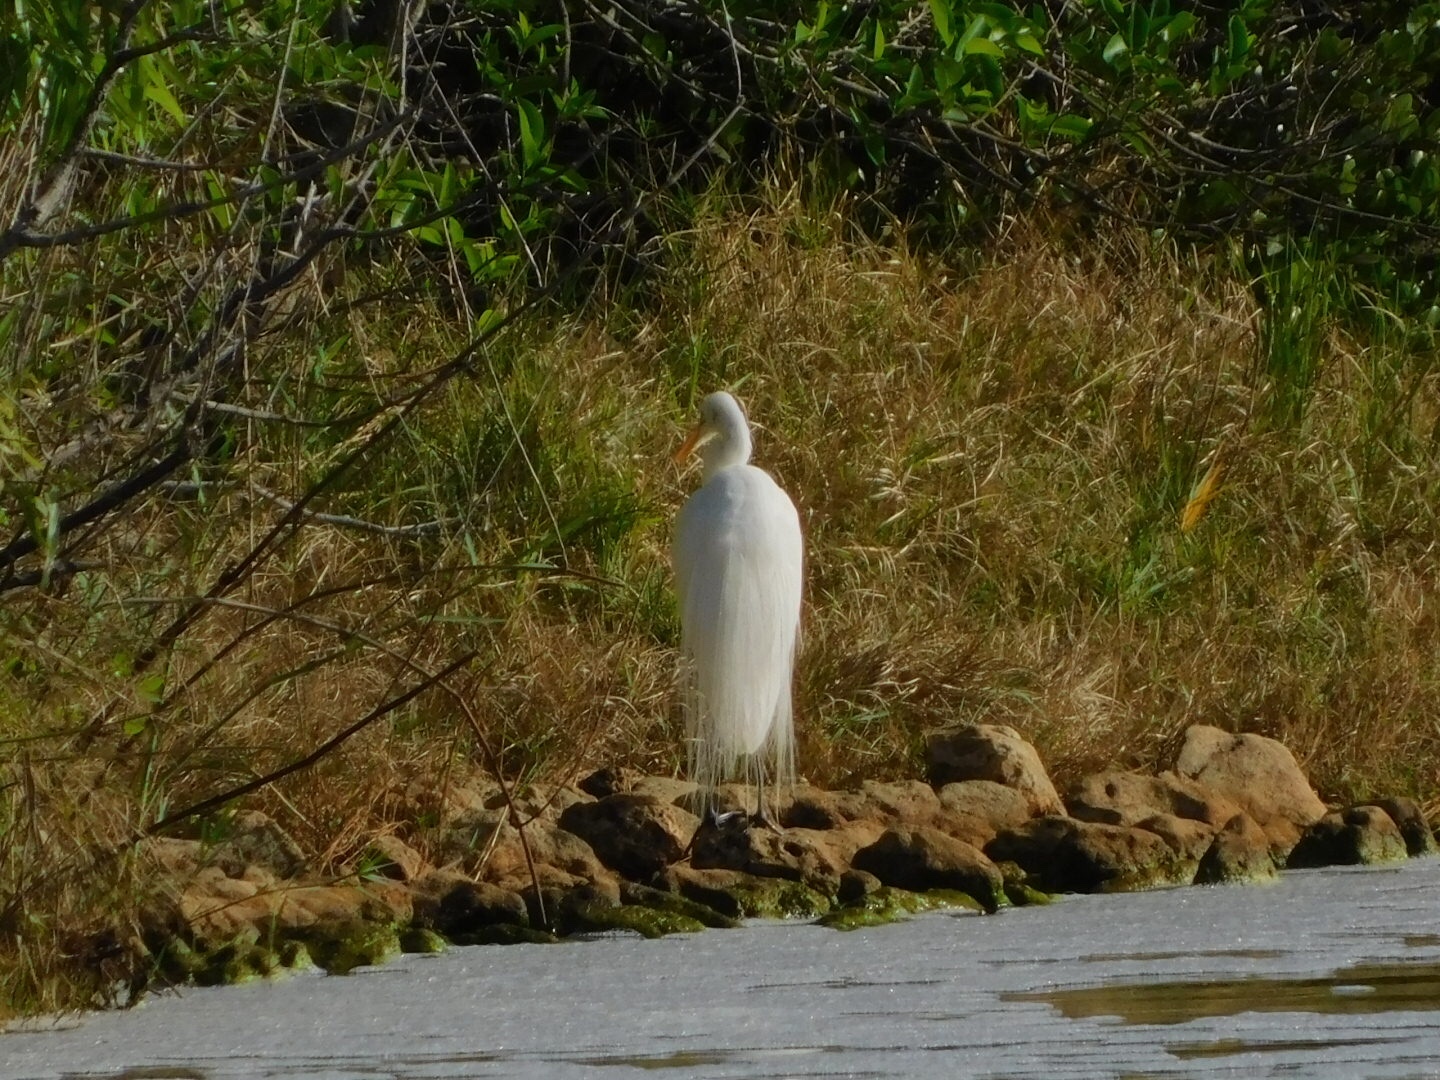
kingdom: Animalia
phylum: Chordata
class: Aves
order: Pelecaniformes
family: Ardeidae
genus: Ardea
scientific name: Ardea alba
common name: Great egret
